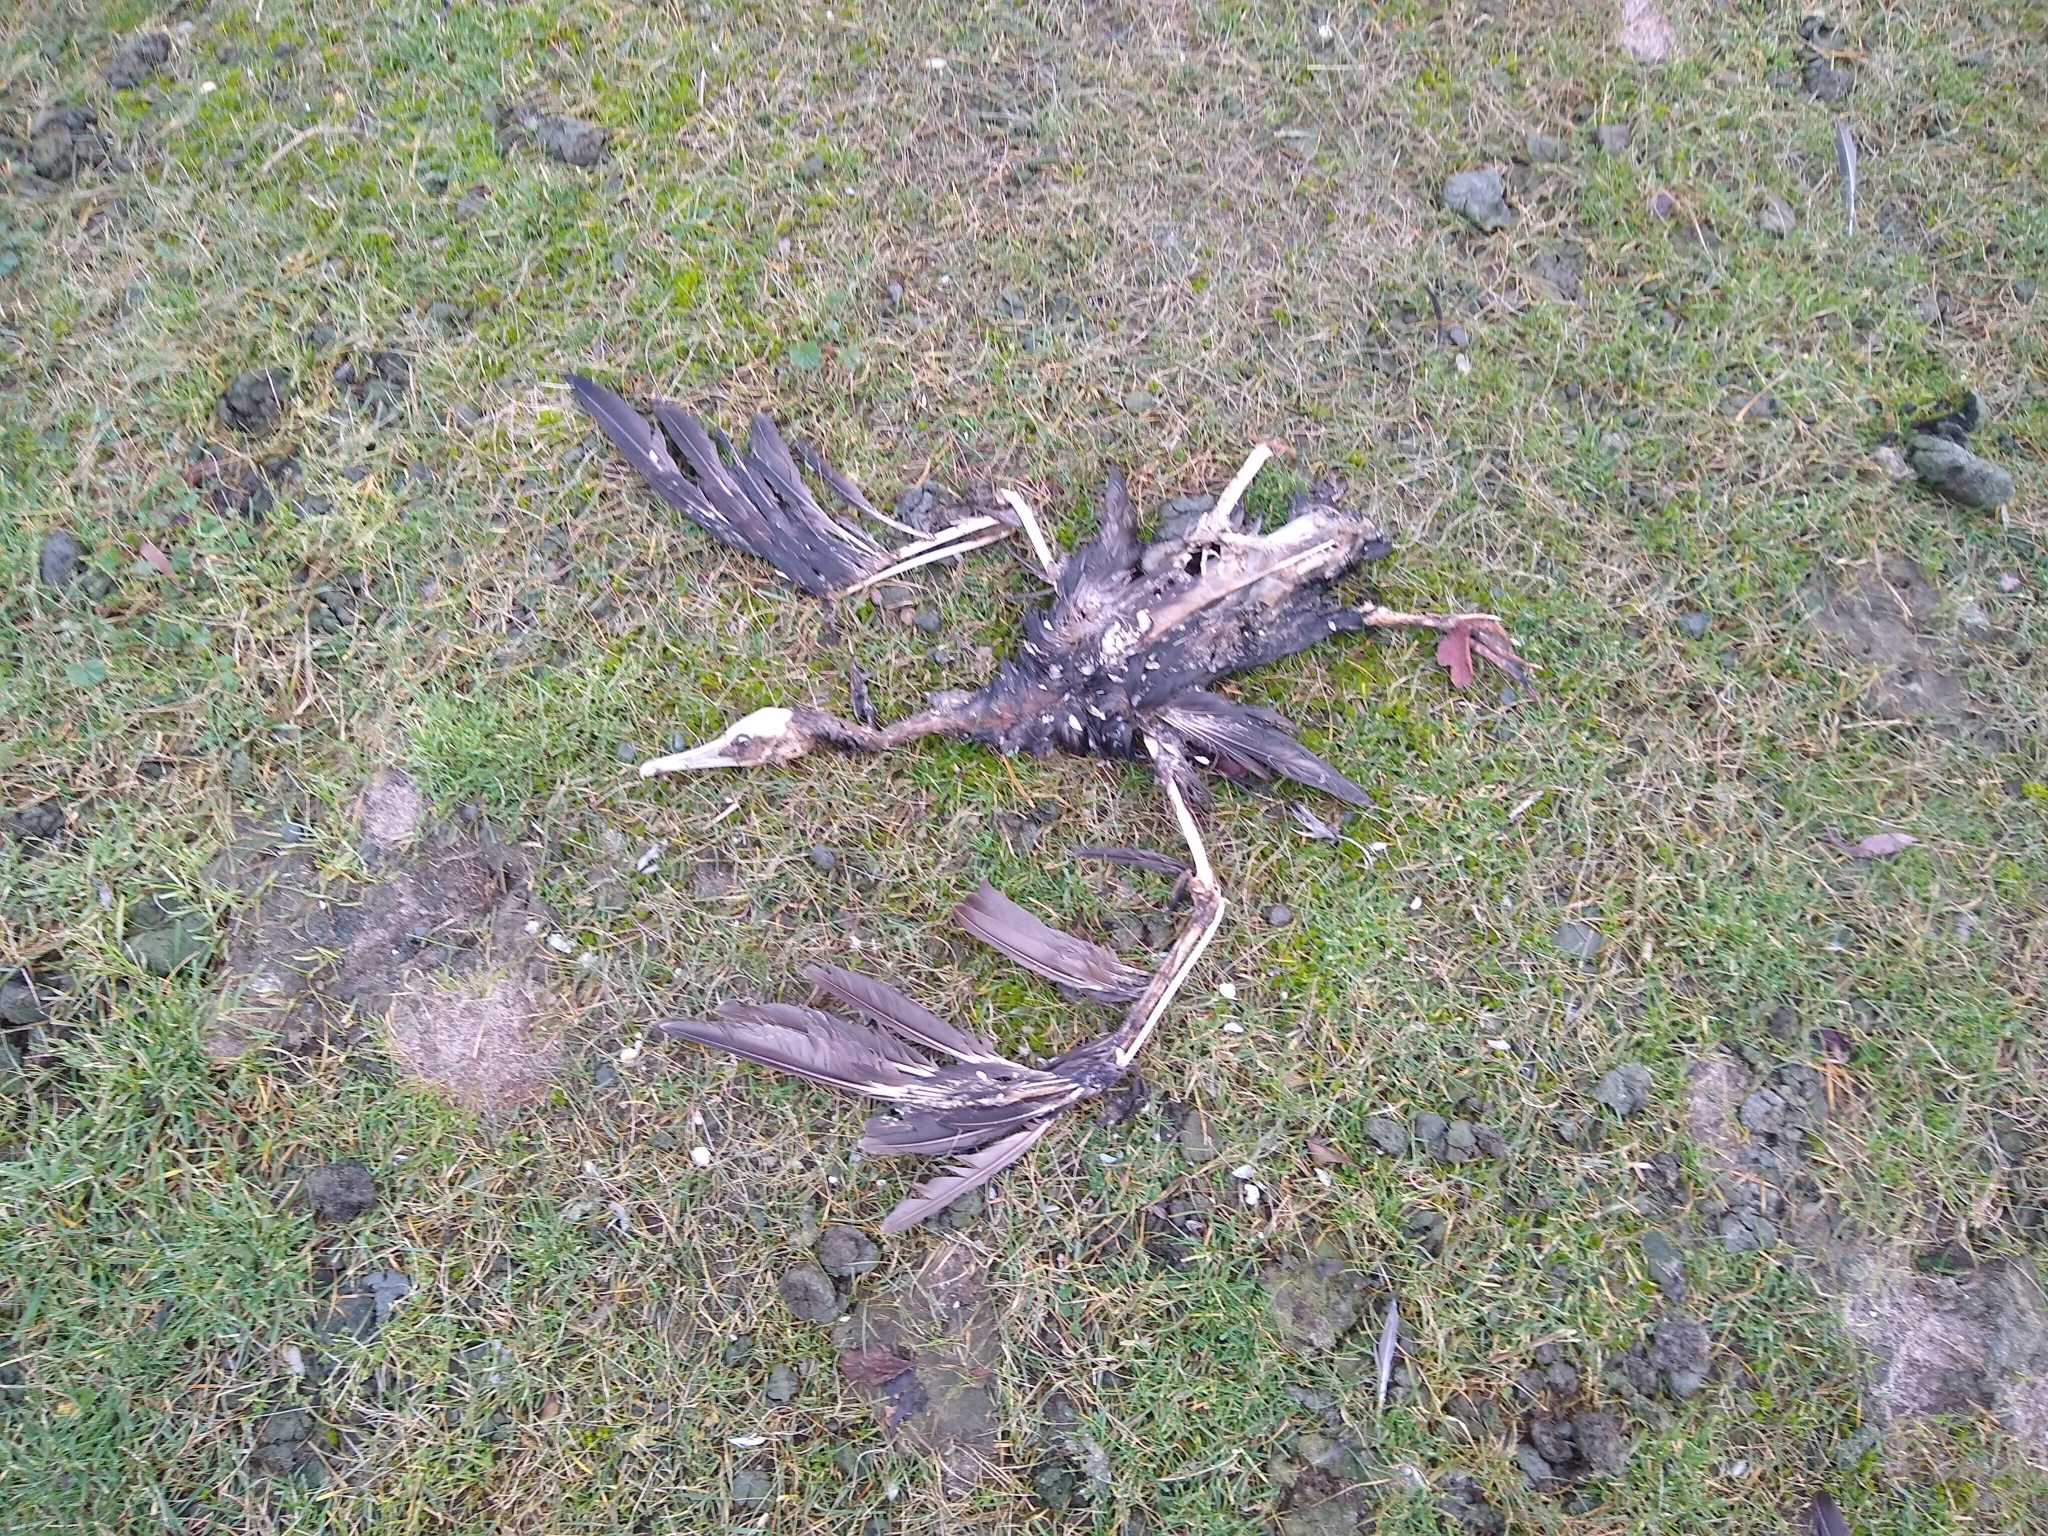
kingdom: Animalia
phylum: Chordata
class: Aves
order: Suliformes
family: Phalacrocoracidae
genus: Phalacrocorax
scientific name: Phalacrocorax carbo
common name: Great cormorant
